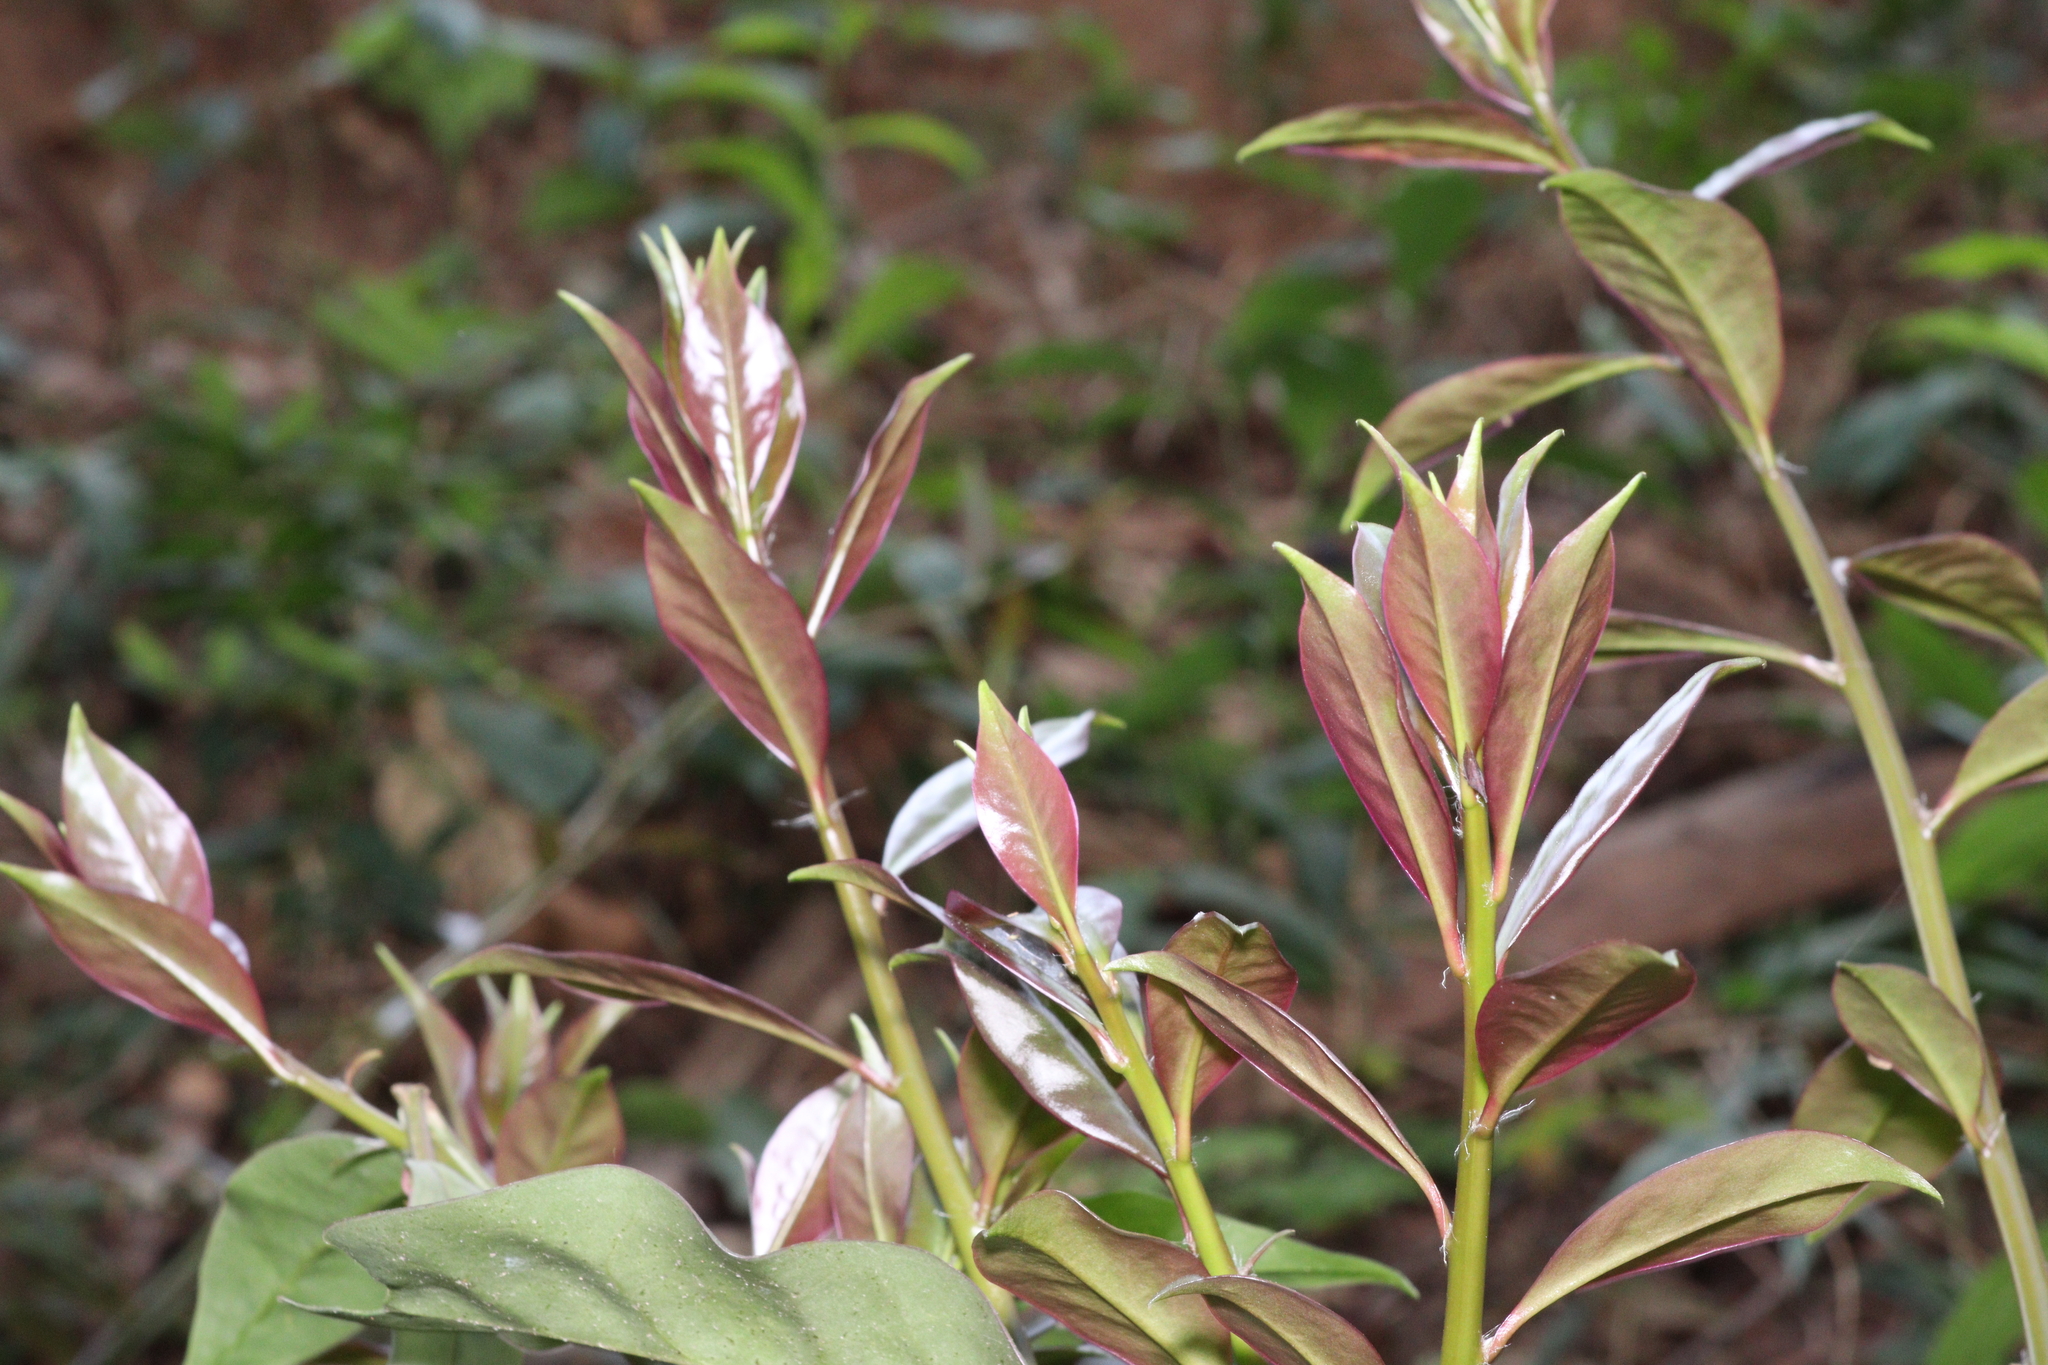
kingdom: Plantae
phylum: Tracheophyta
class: Magnoliopsida
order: Caryophyllales
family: Cactaceae
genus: Pereskia
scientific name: Pereskia aculeata
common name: Barbados gooseberry
